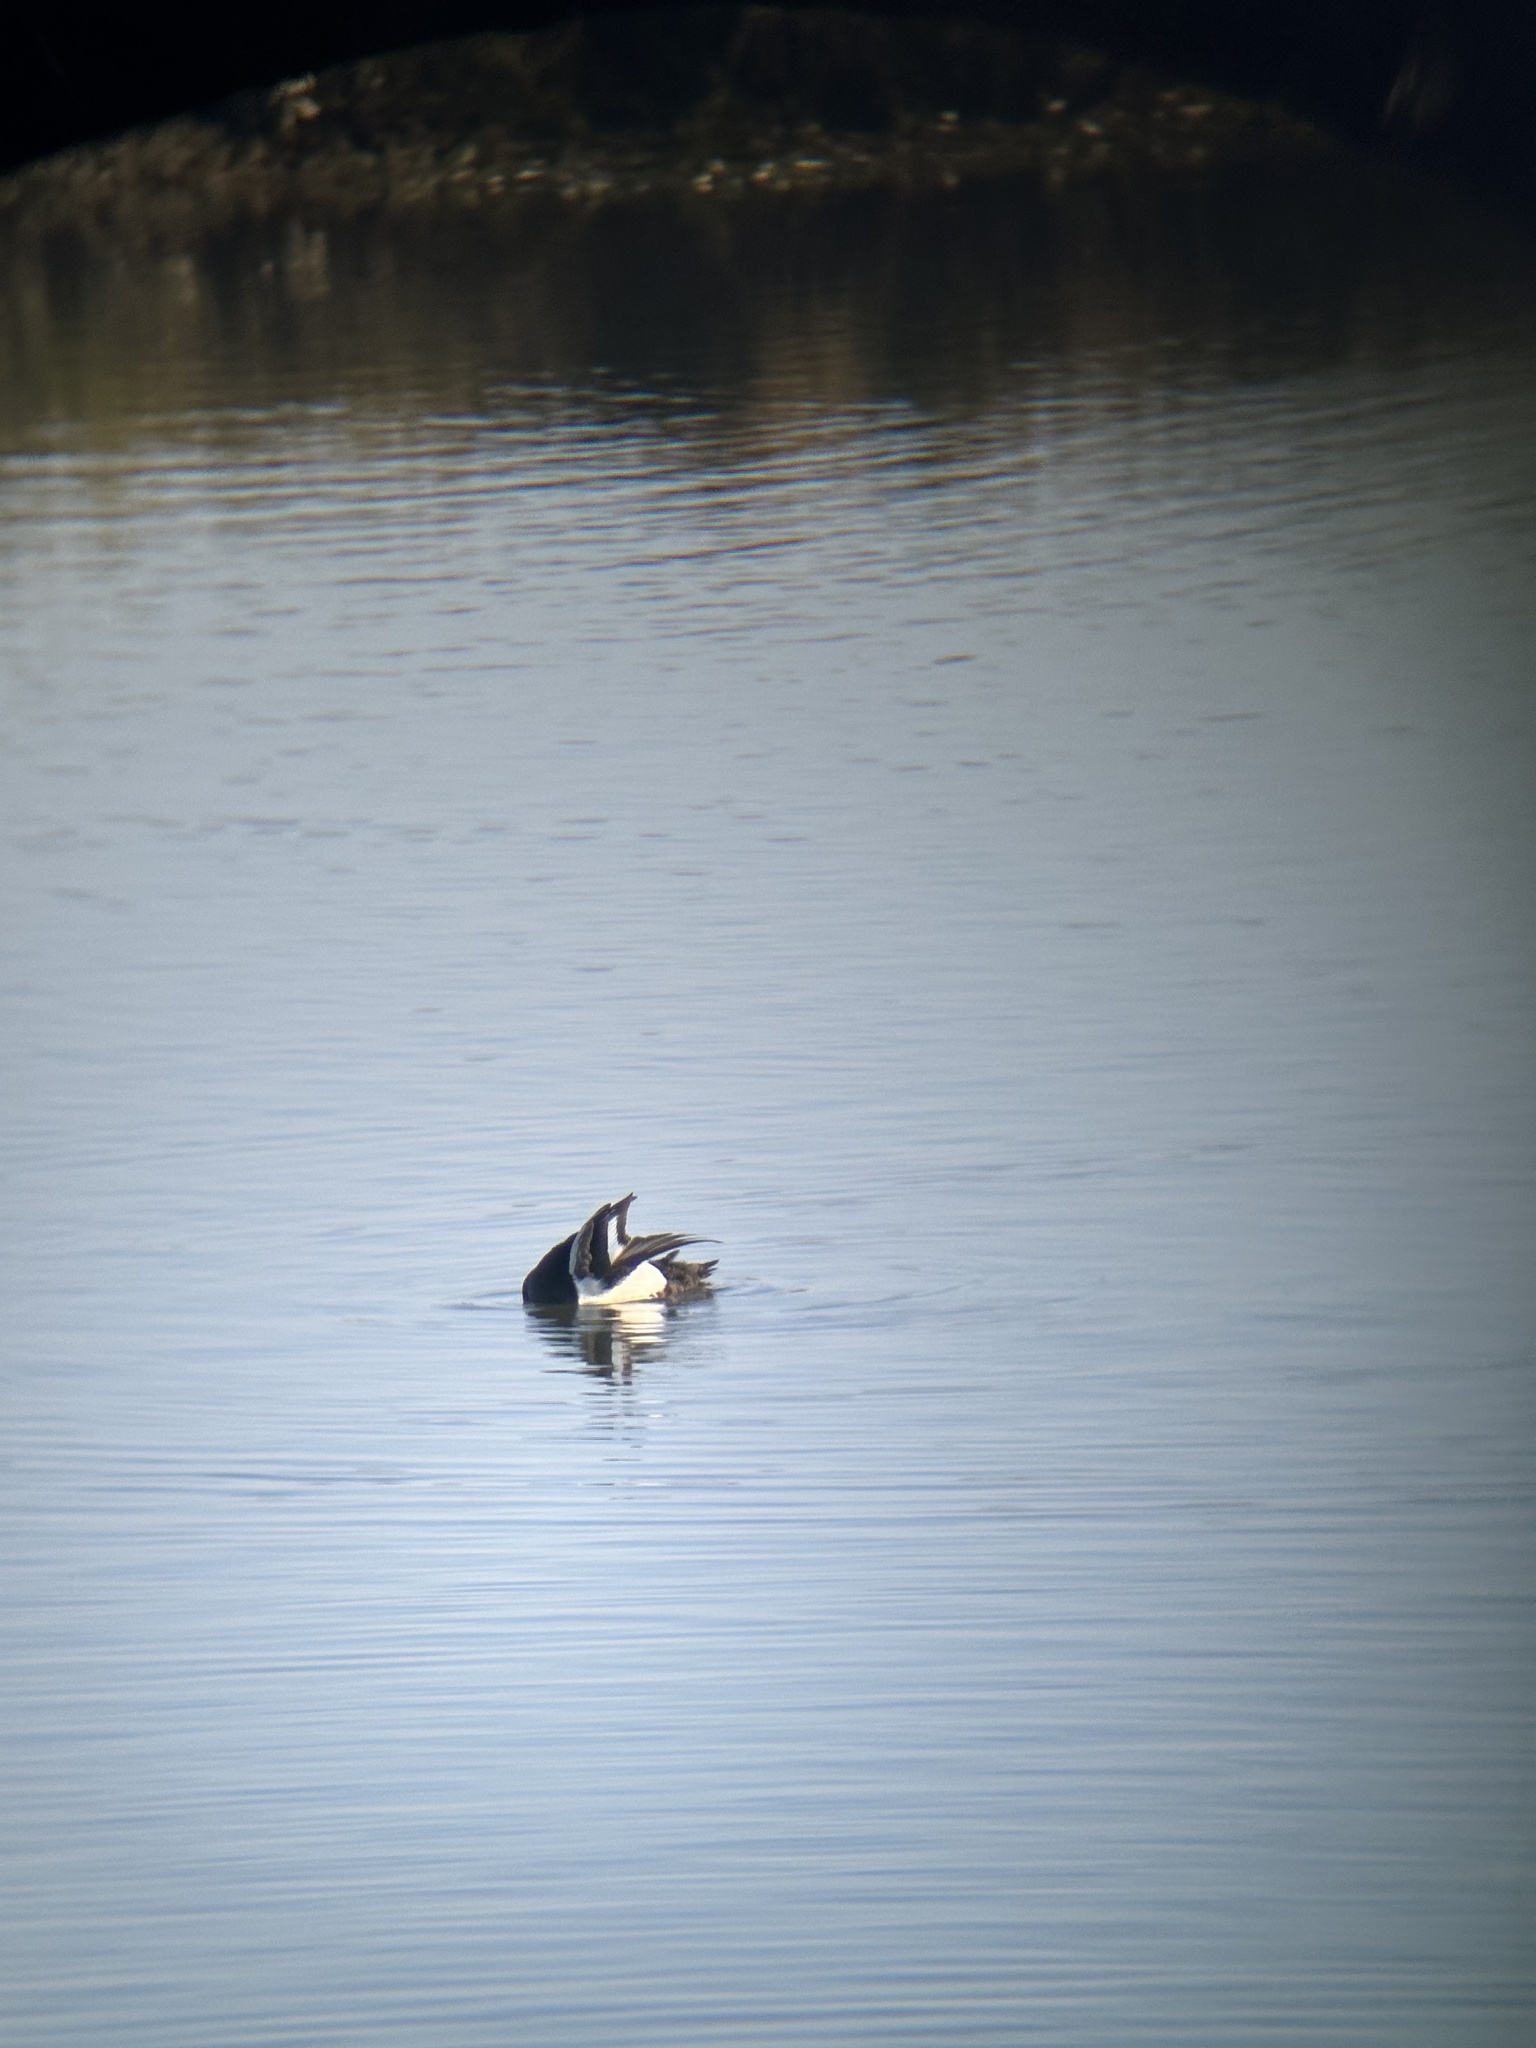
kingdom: Animalia
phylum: Chordata
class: Aves
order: Anseriformes
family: Anatidae
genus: Aythya
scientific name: Aythya marila
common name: Greater scaup
